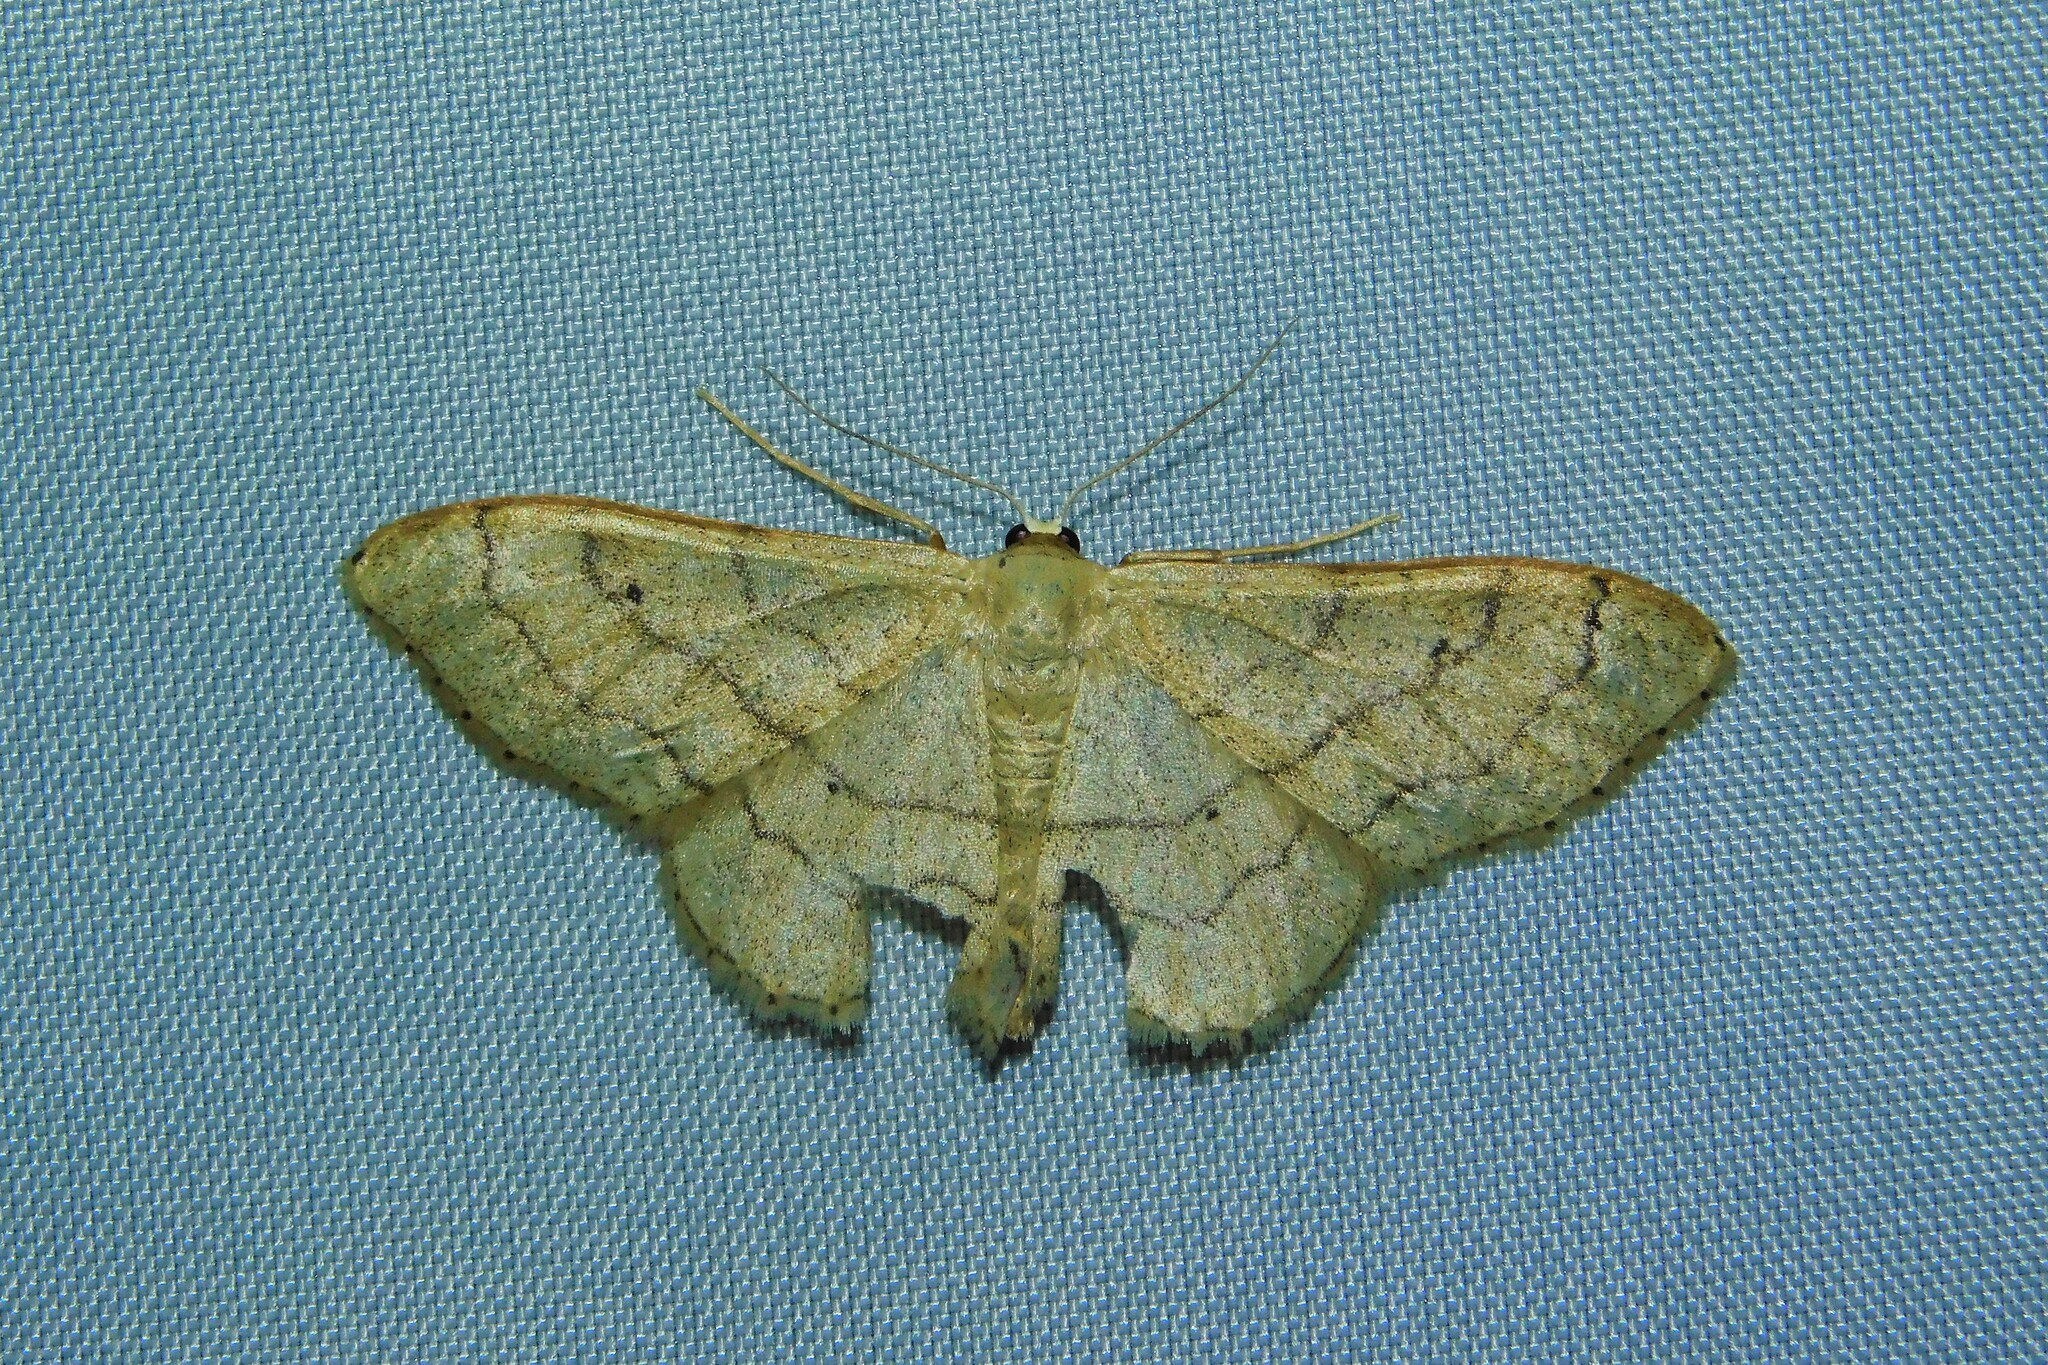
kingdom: Animalia
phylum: Arthropoda
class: Insecta
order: Lepidoptera
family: Geometridae
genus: Idaea
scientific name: Idaea aversata
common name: Riband wave
